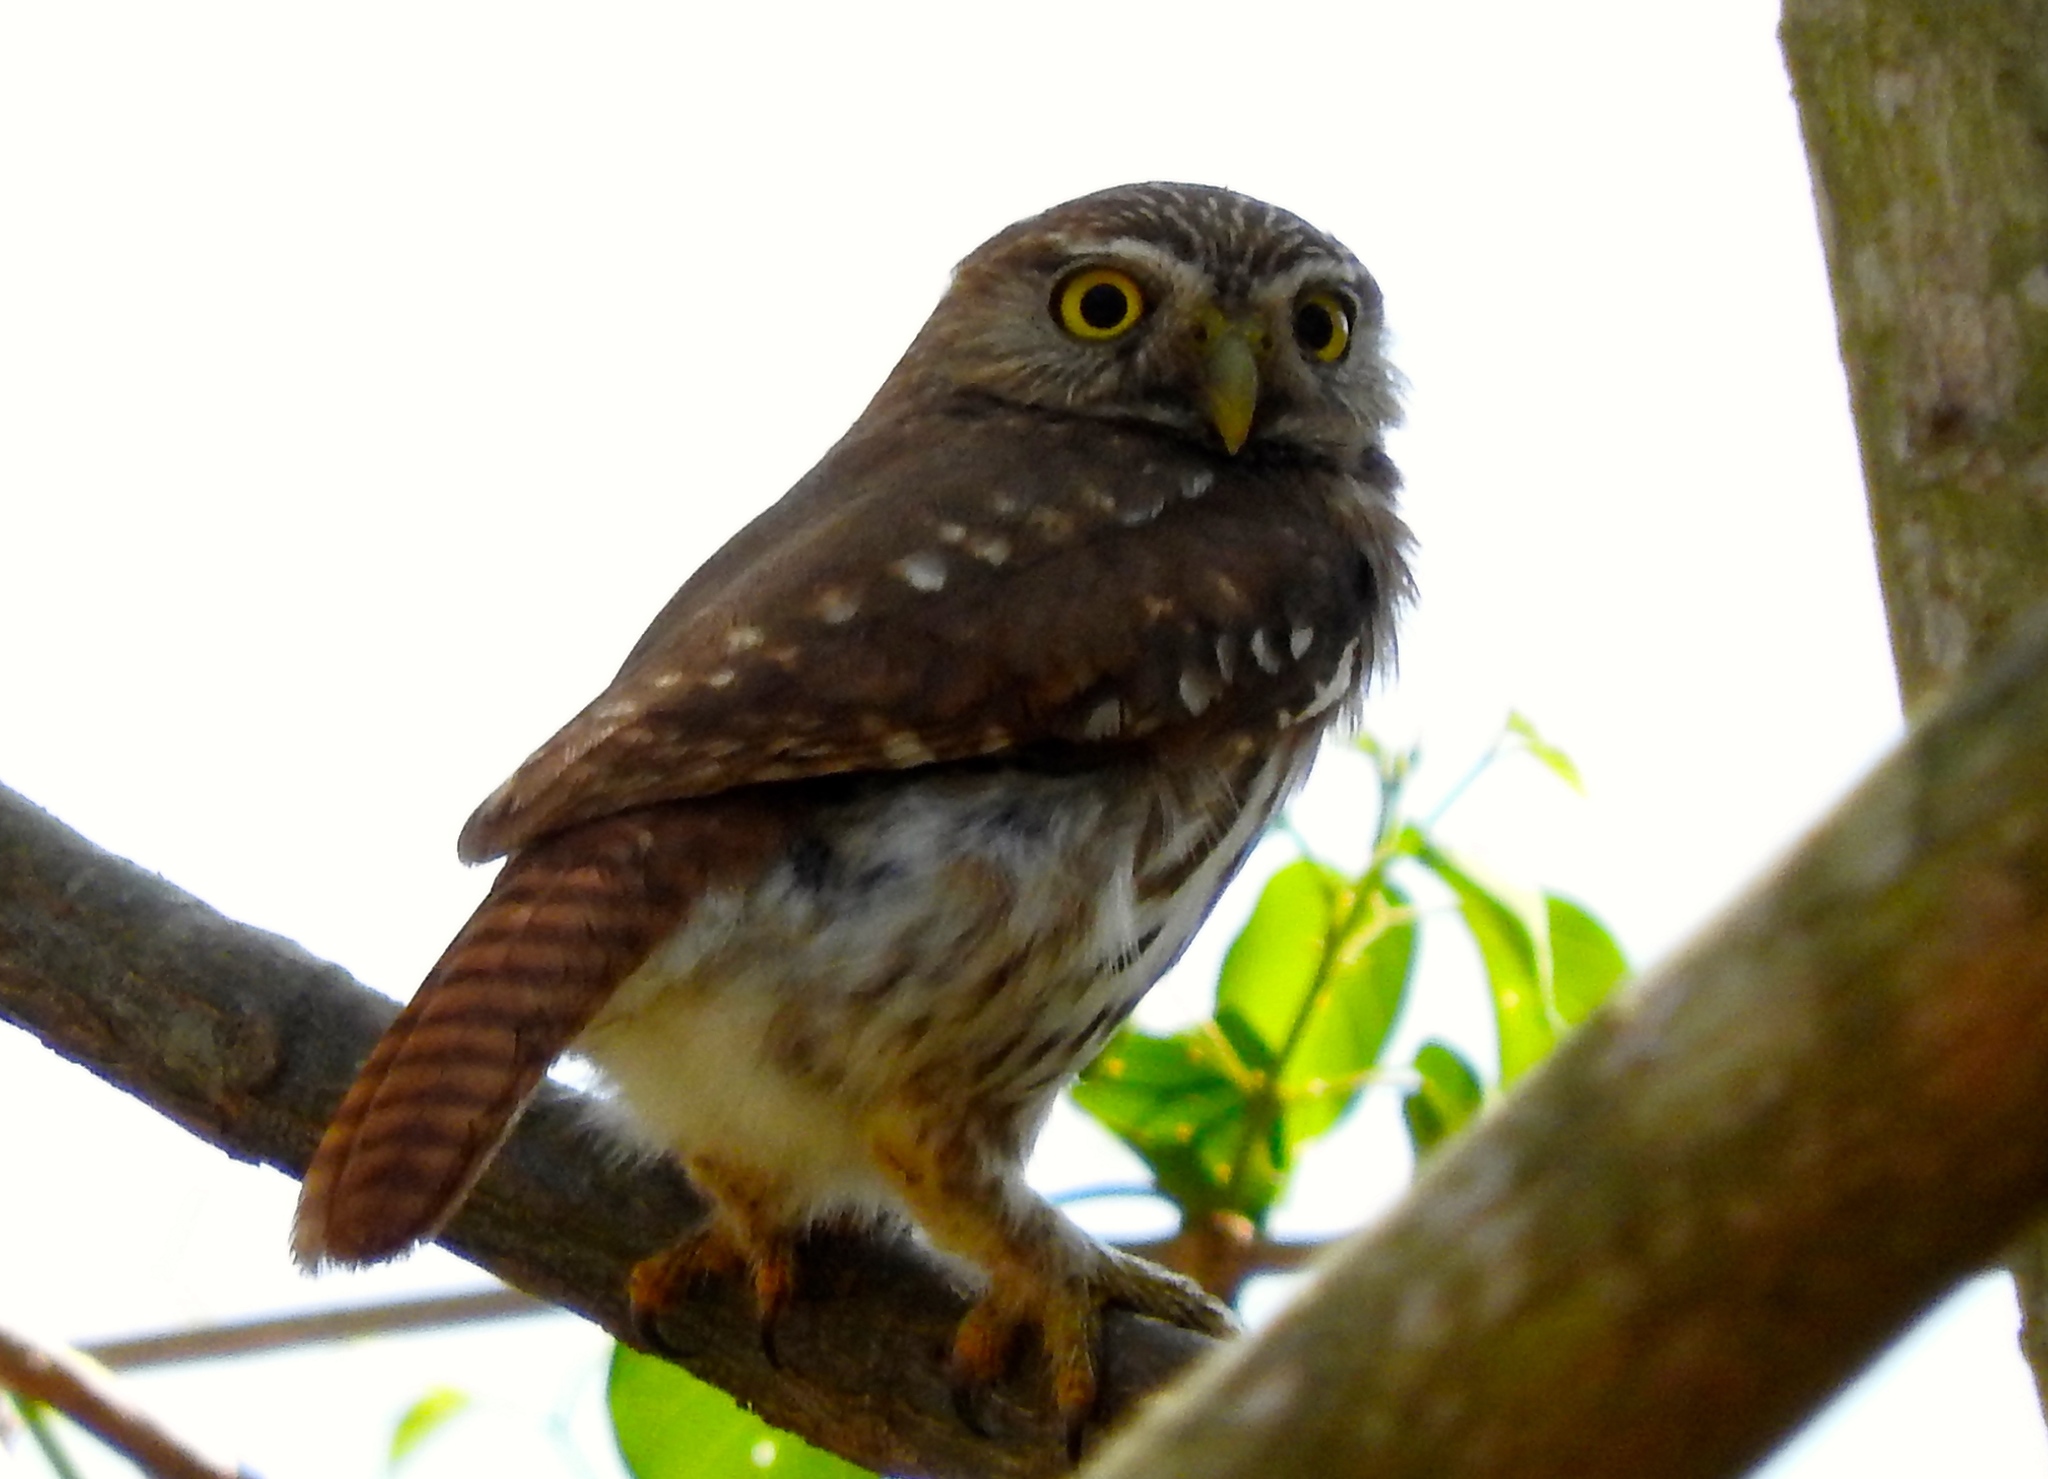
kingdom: Animalia
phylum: Chordata
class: Aves
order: Strigiformes
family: Strigidae
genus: Glaucidium
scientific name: Glaucidium brasilianum
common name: Ferruginous pygmy-owl
